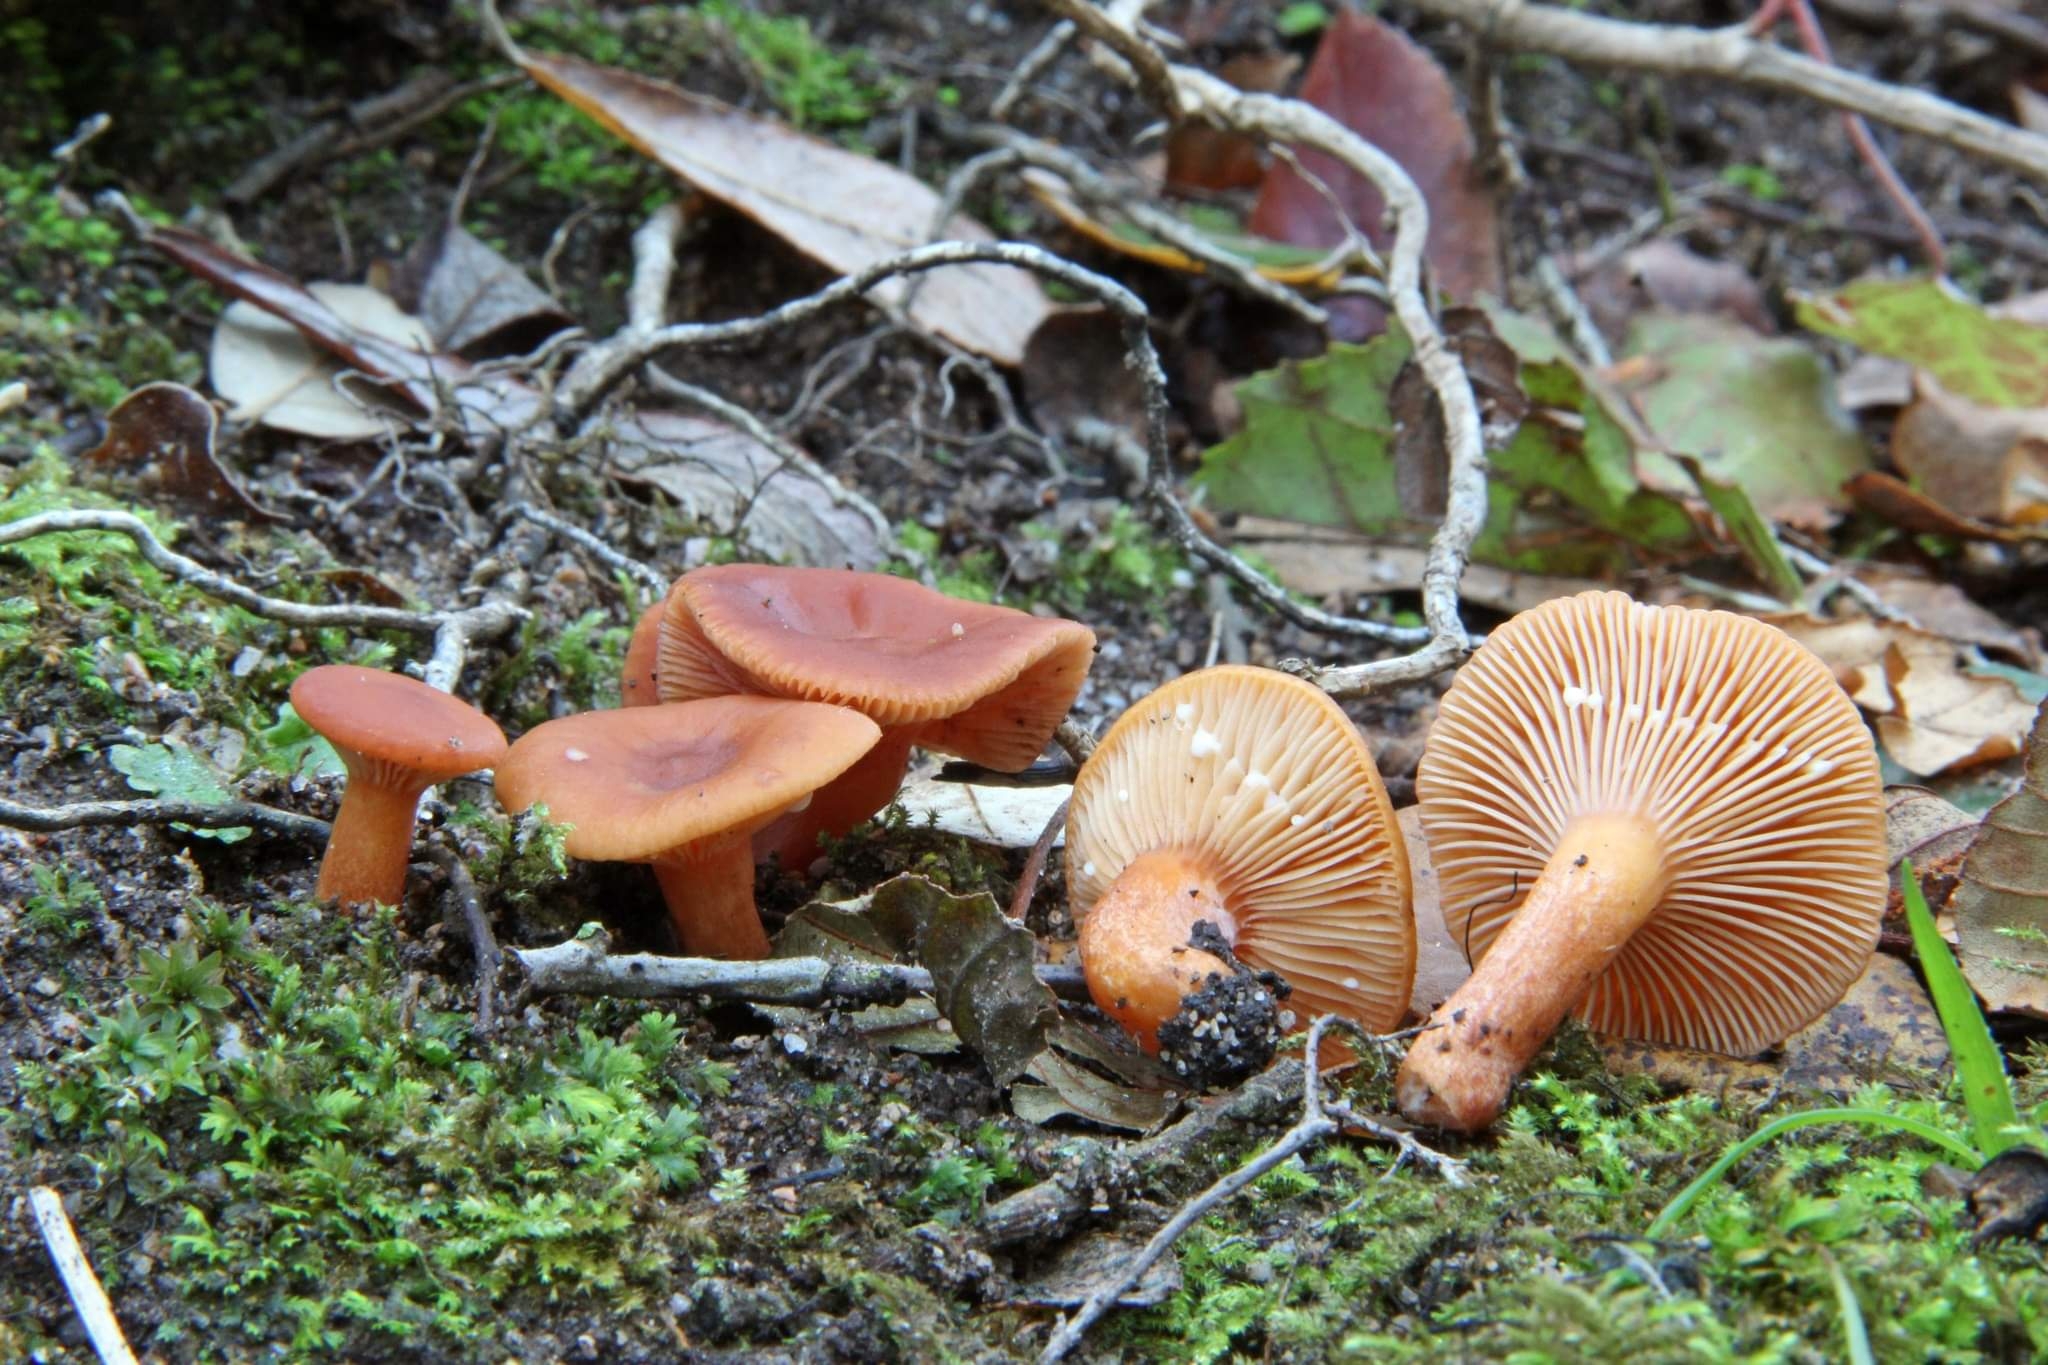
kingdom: Fungi
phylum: Basidiomycota
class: Agaricomycetes
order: Russulales
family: Russulaceae
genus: Lactarius
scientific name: Lactarius lacunarum
